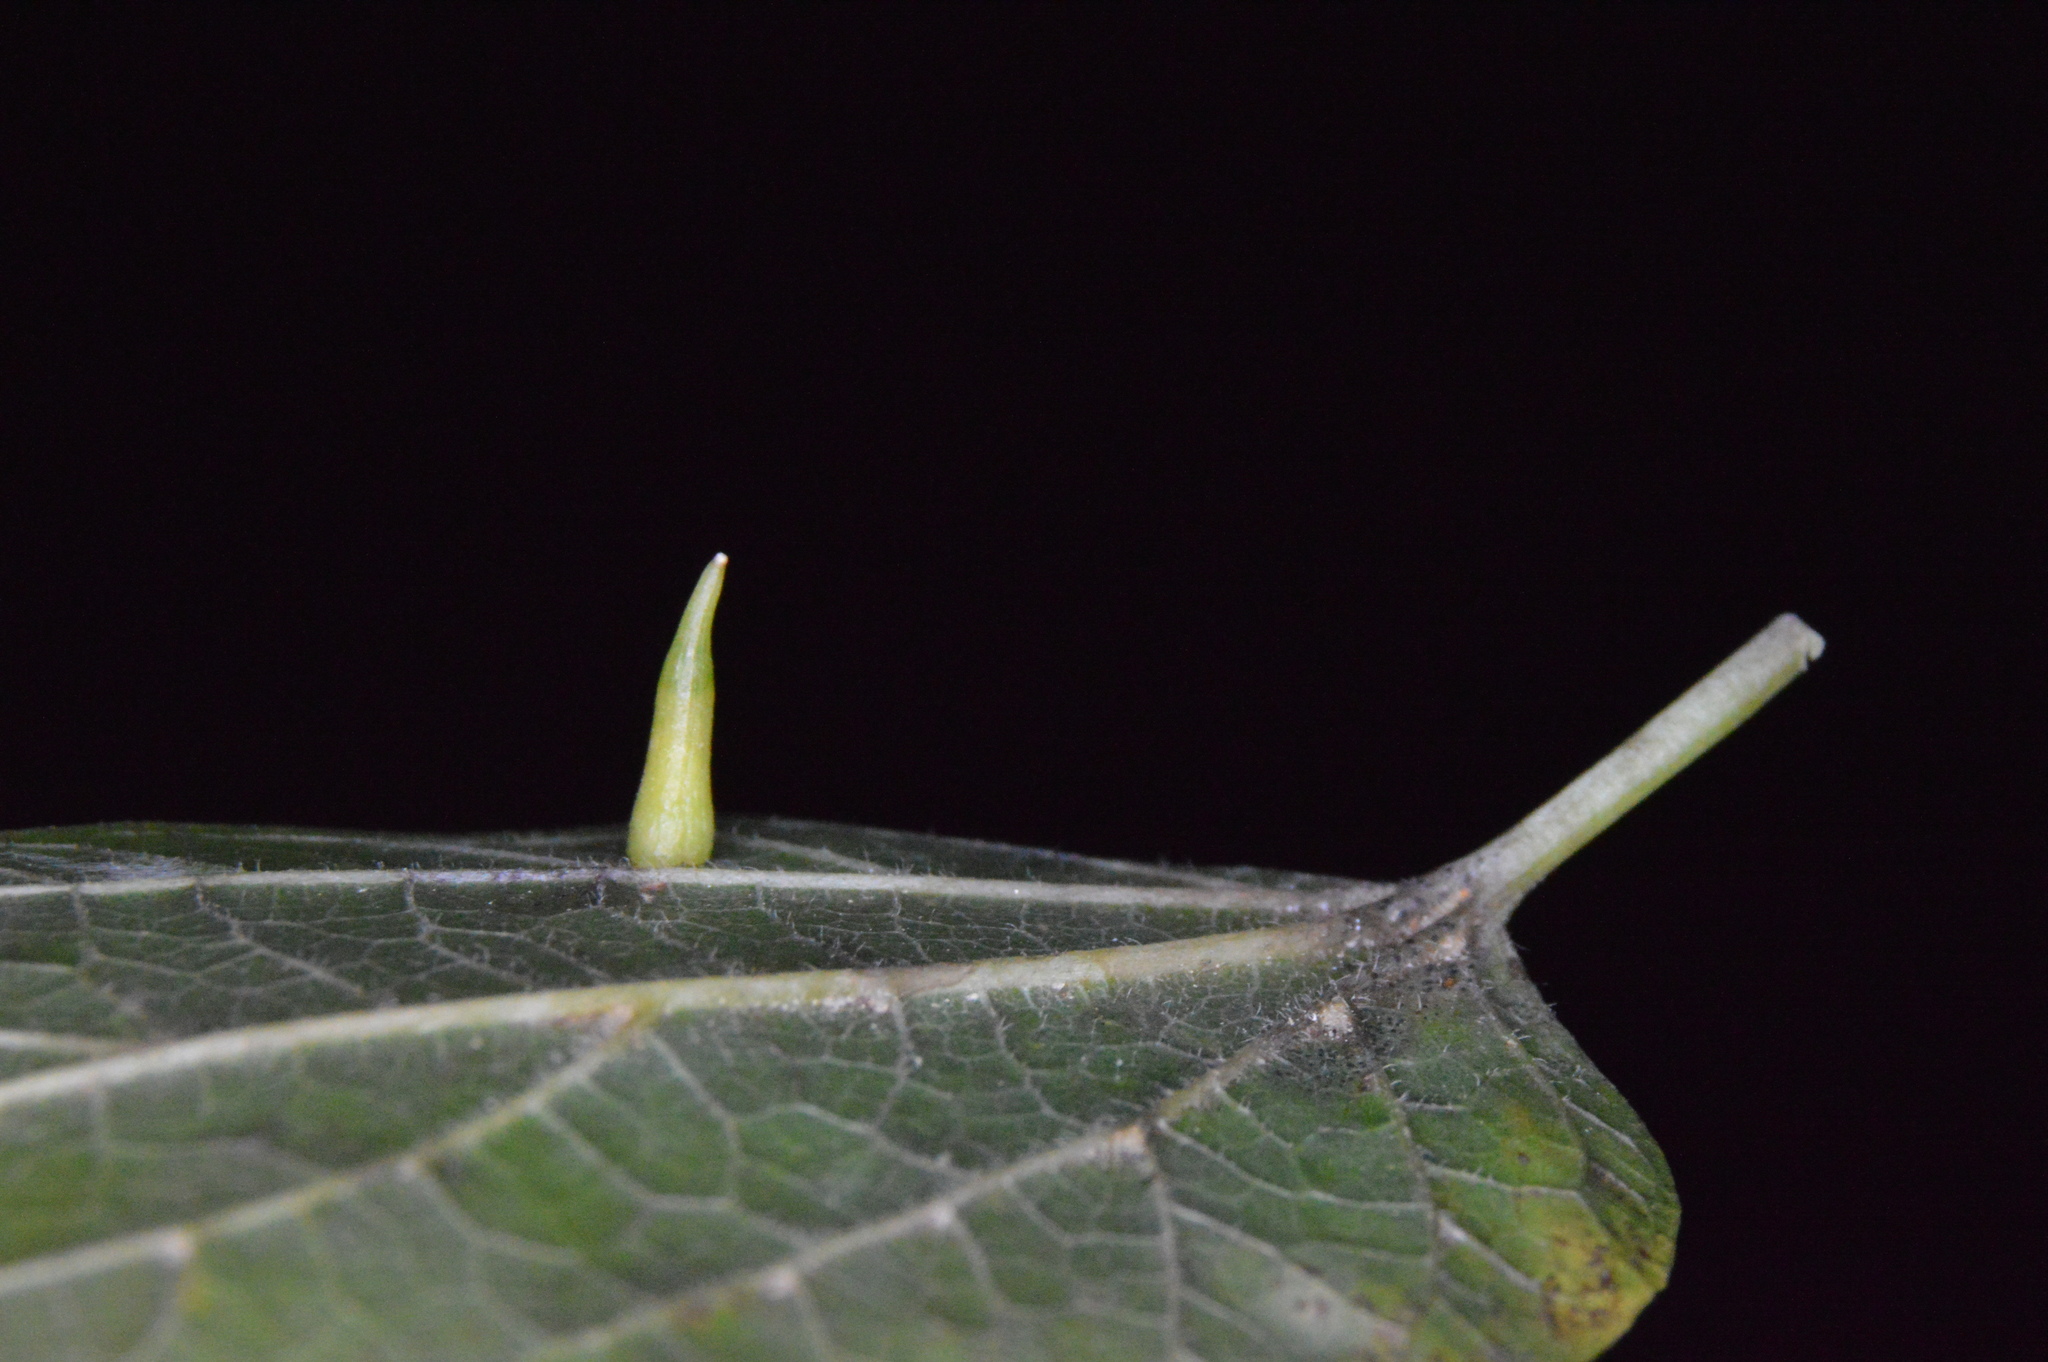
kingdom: Animalia
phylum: Arthropoda
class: Insecta
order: Diptera
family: Cecidomyiidae
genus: Celticecis
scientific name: Celticecis subulata
